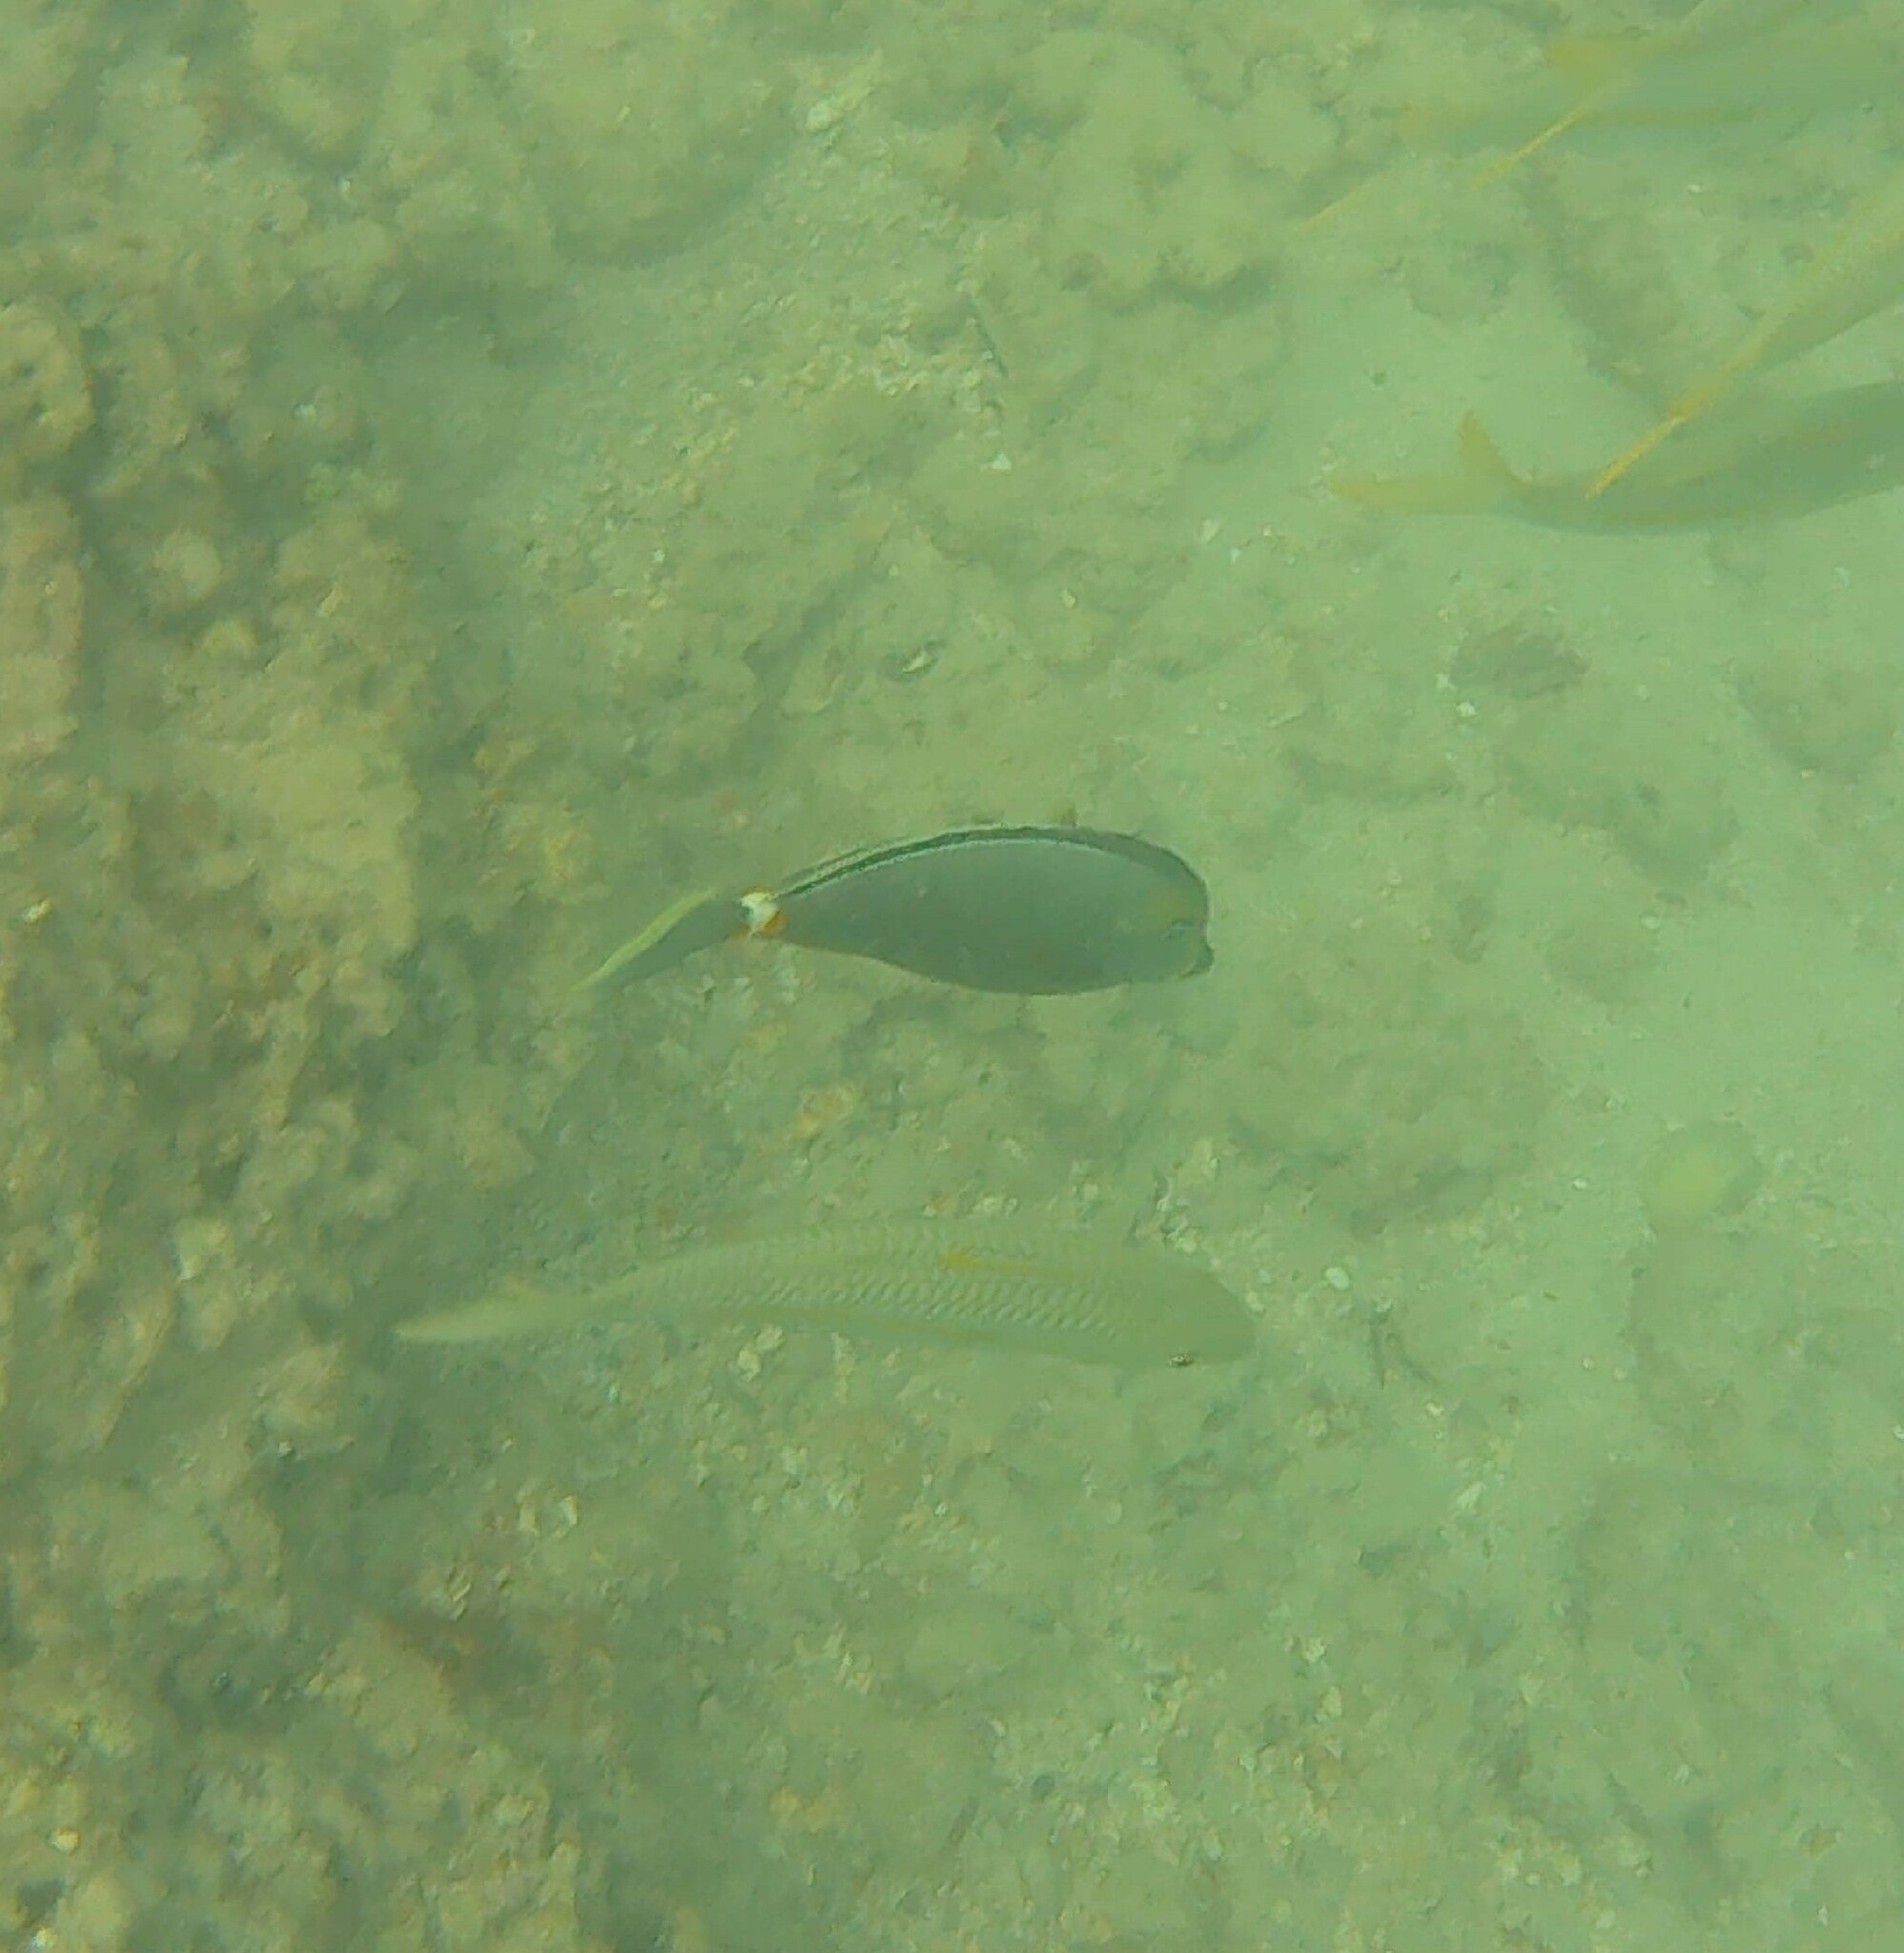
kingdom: Animalia
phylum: Chordata
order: Perciformes
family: Acanthuridae
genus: Naso
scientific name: Naso lituratus
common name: Orangespine unicornfish
